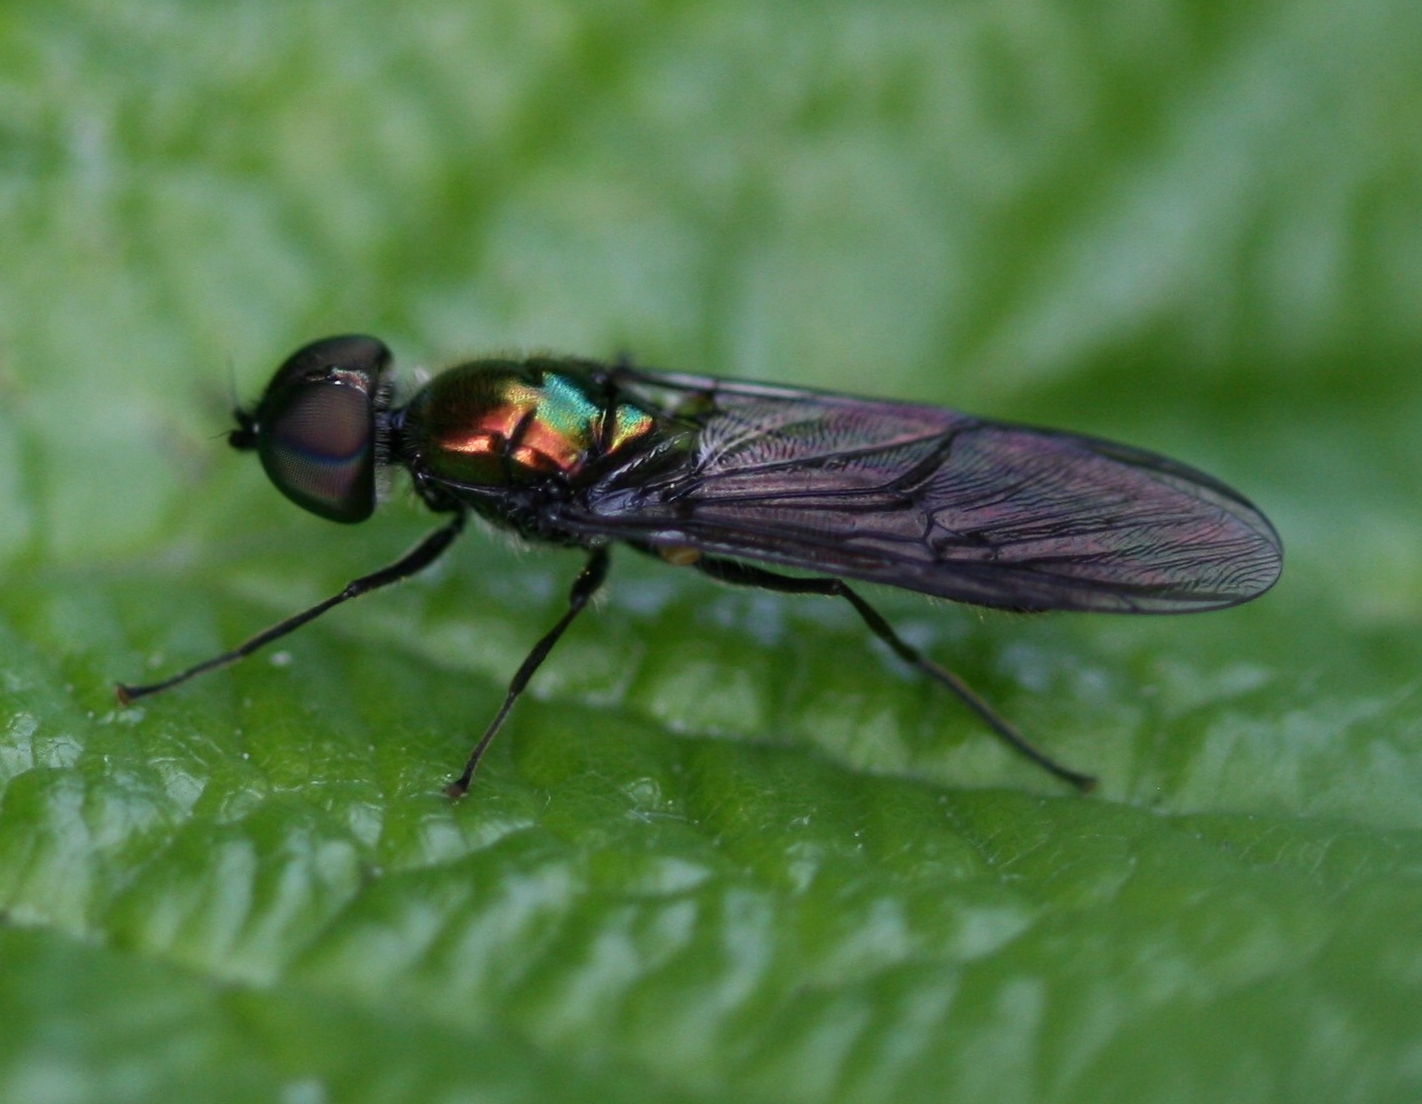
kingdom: Animalia
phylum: Arthropoda
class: Insecta
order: Diptera
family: Stratiomyidae
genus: Sargus
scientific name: Sargus iridatus
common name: Iridescent centurion
